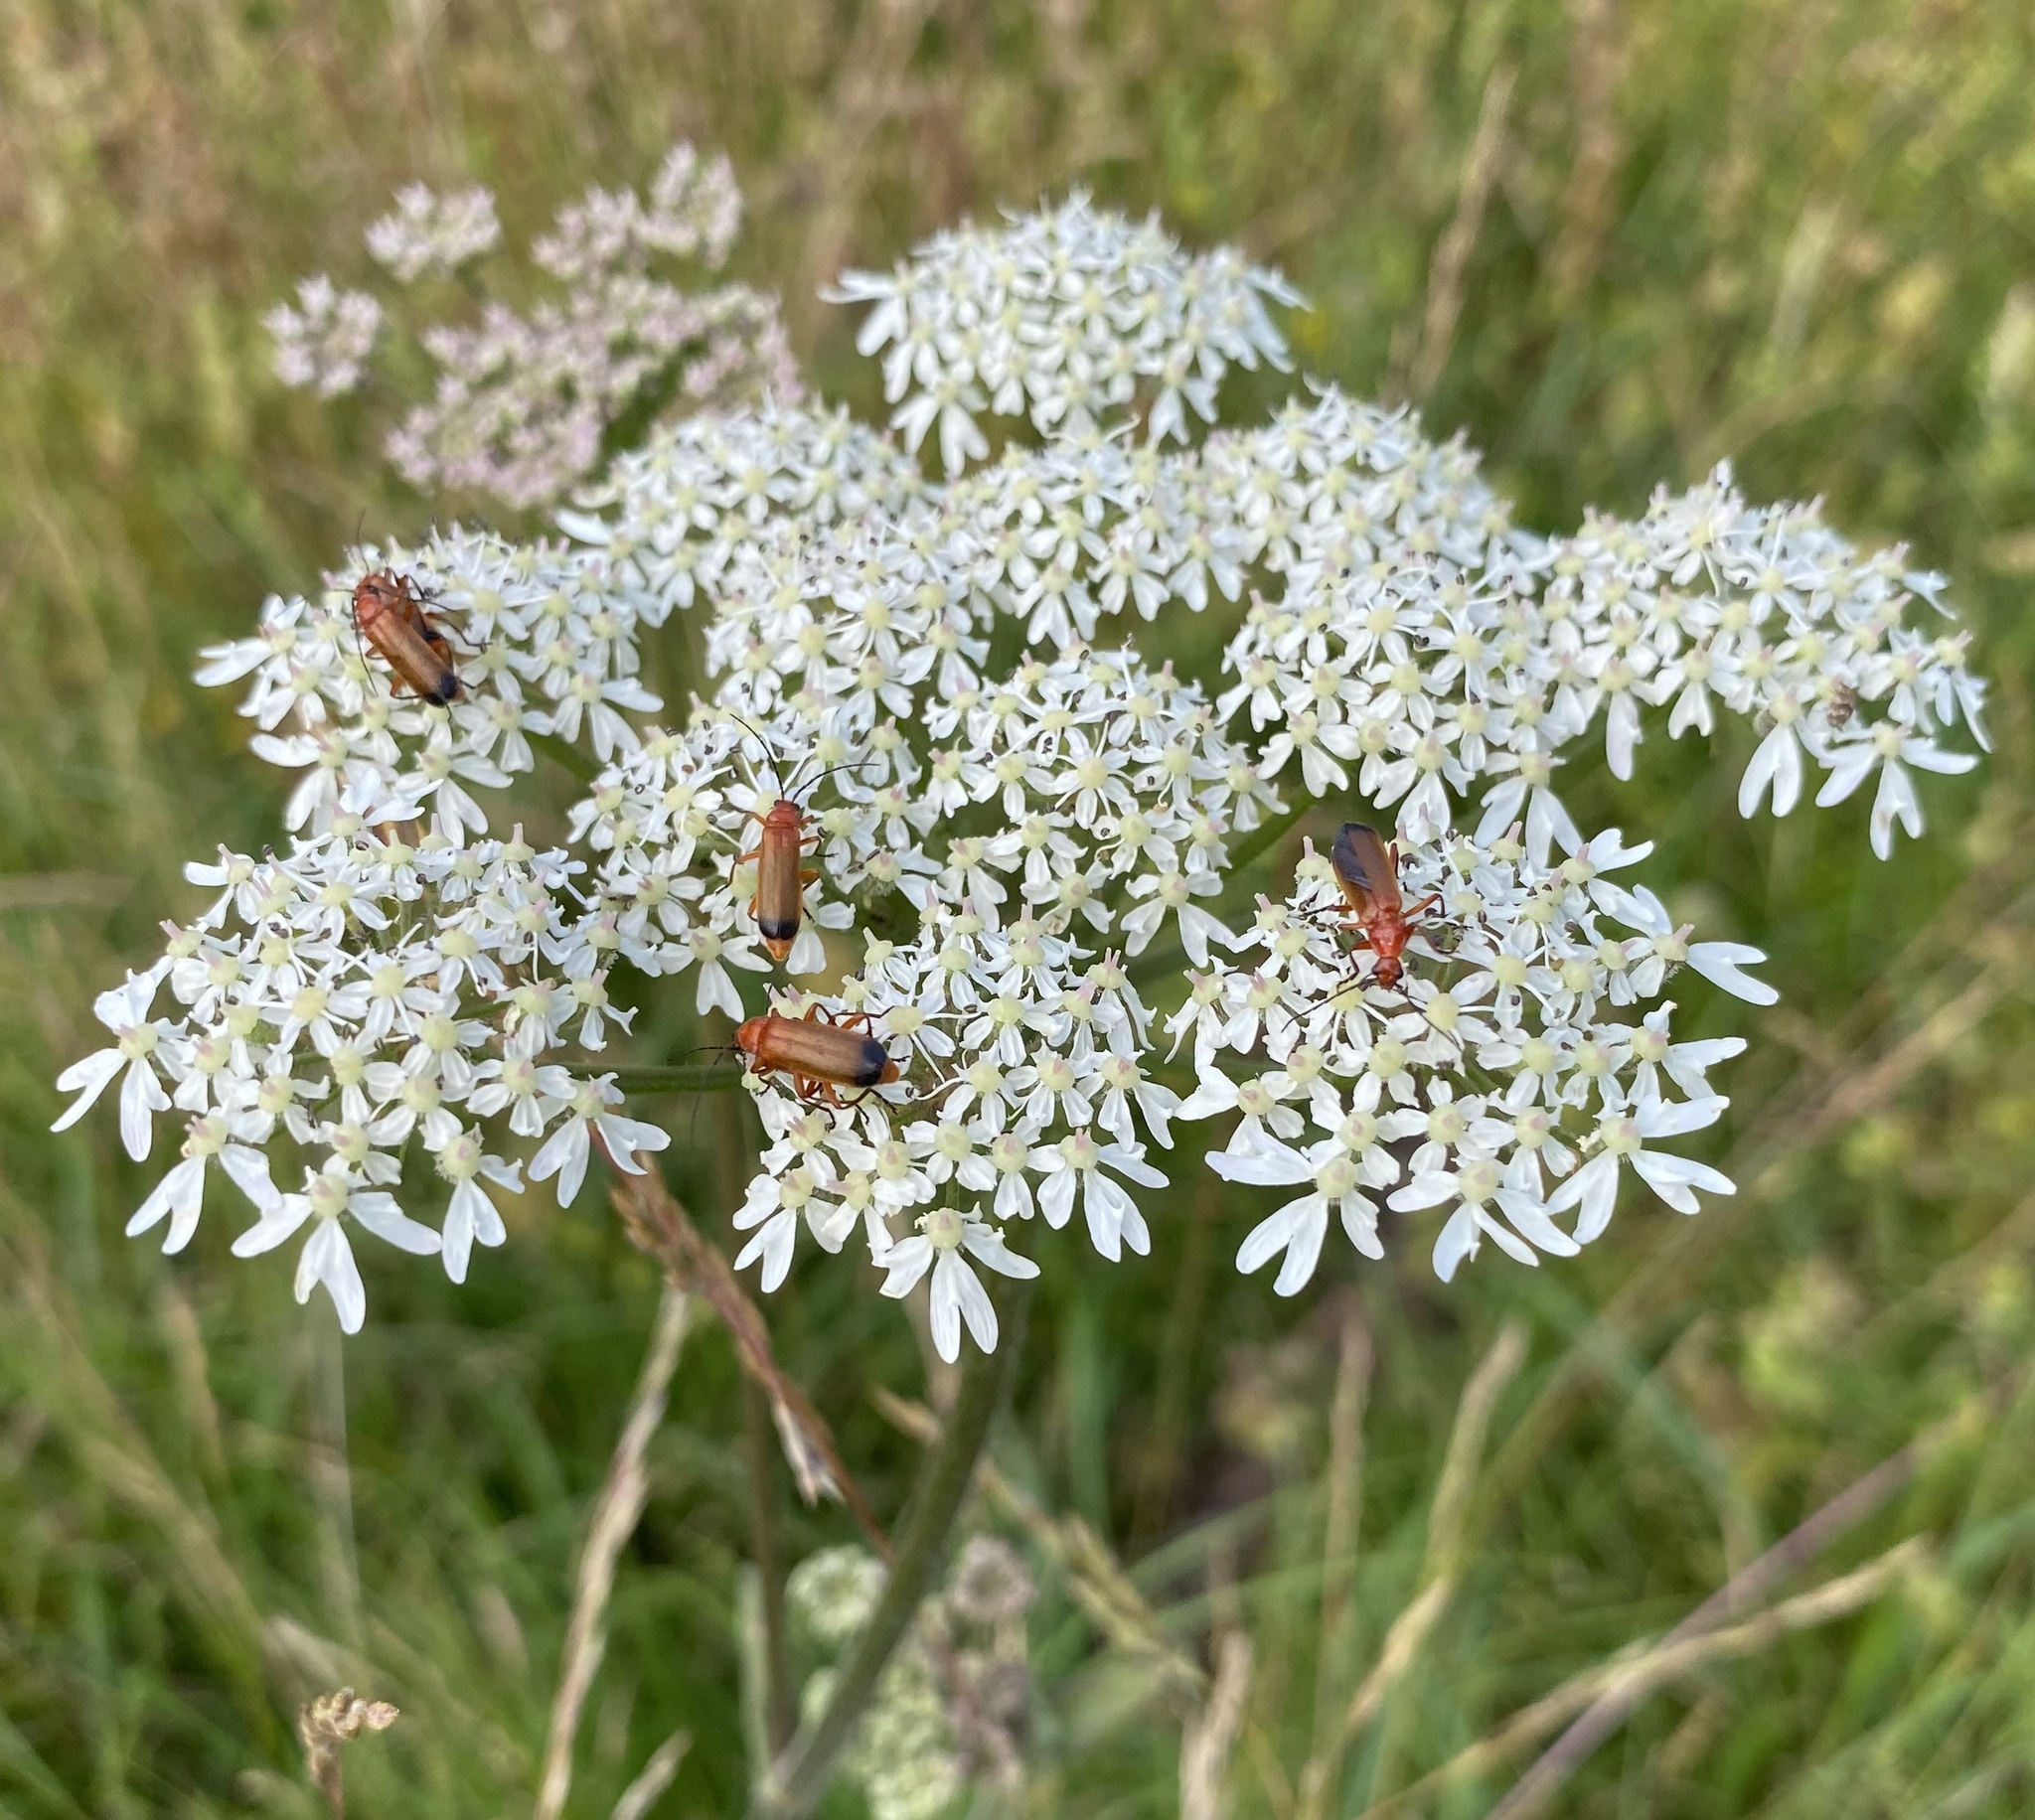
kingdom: Animalia
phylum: Arthropoda
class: Insecta
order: Coleoptera
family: Cantharidae
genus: Rhagonycha
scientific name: Rhagonycha fulva
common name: Common red soldier beetle
